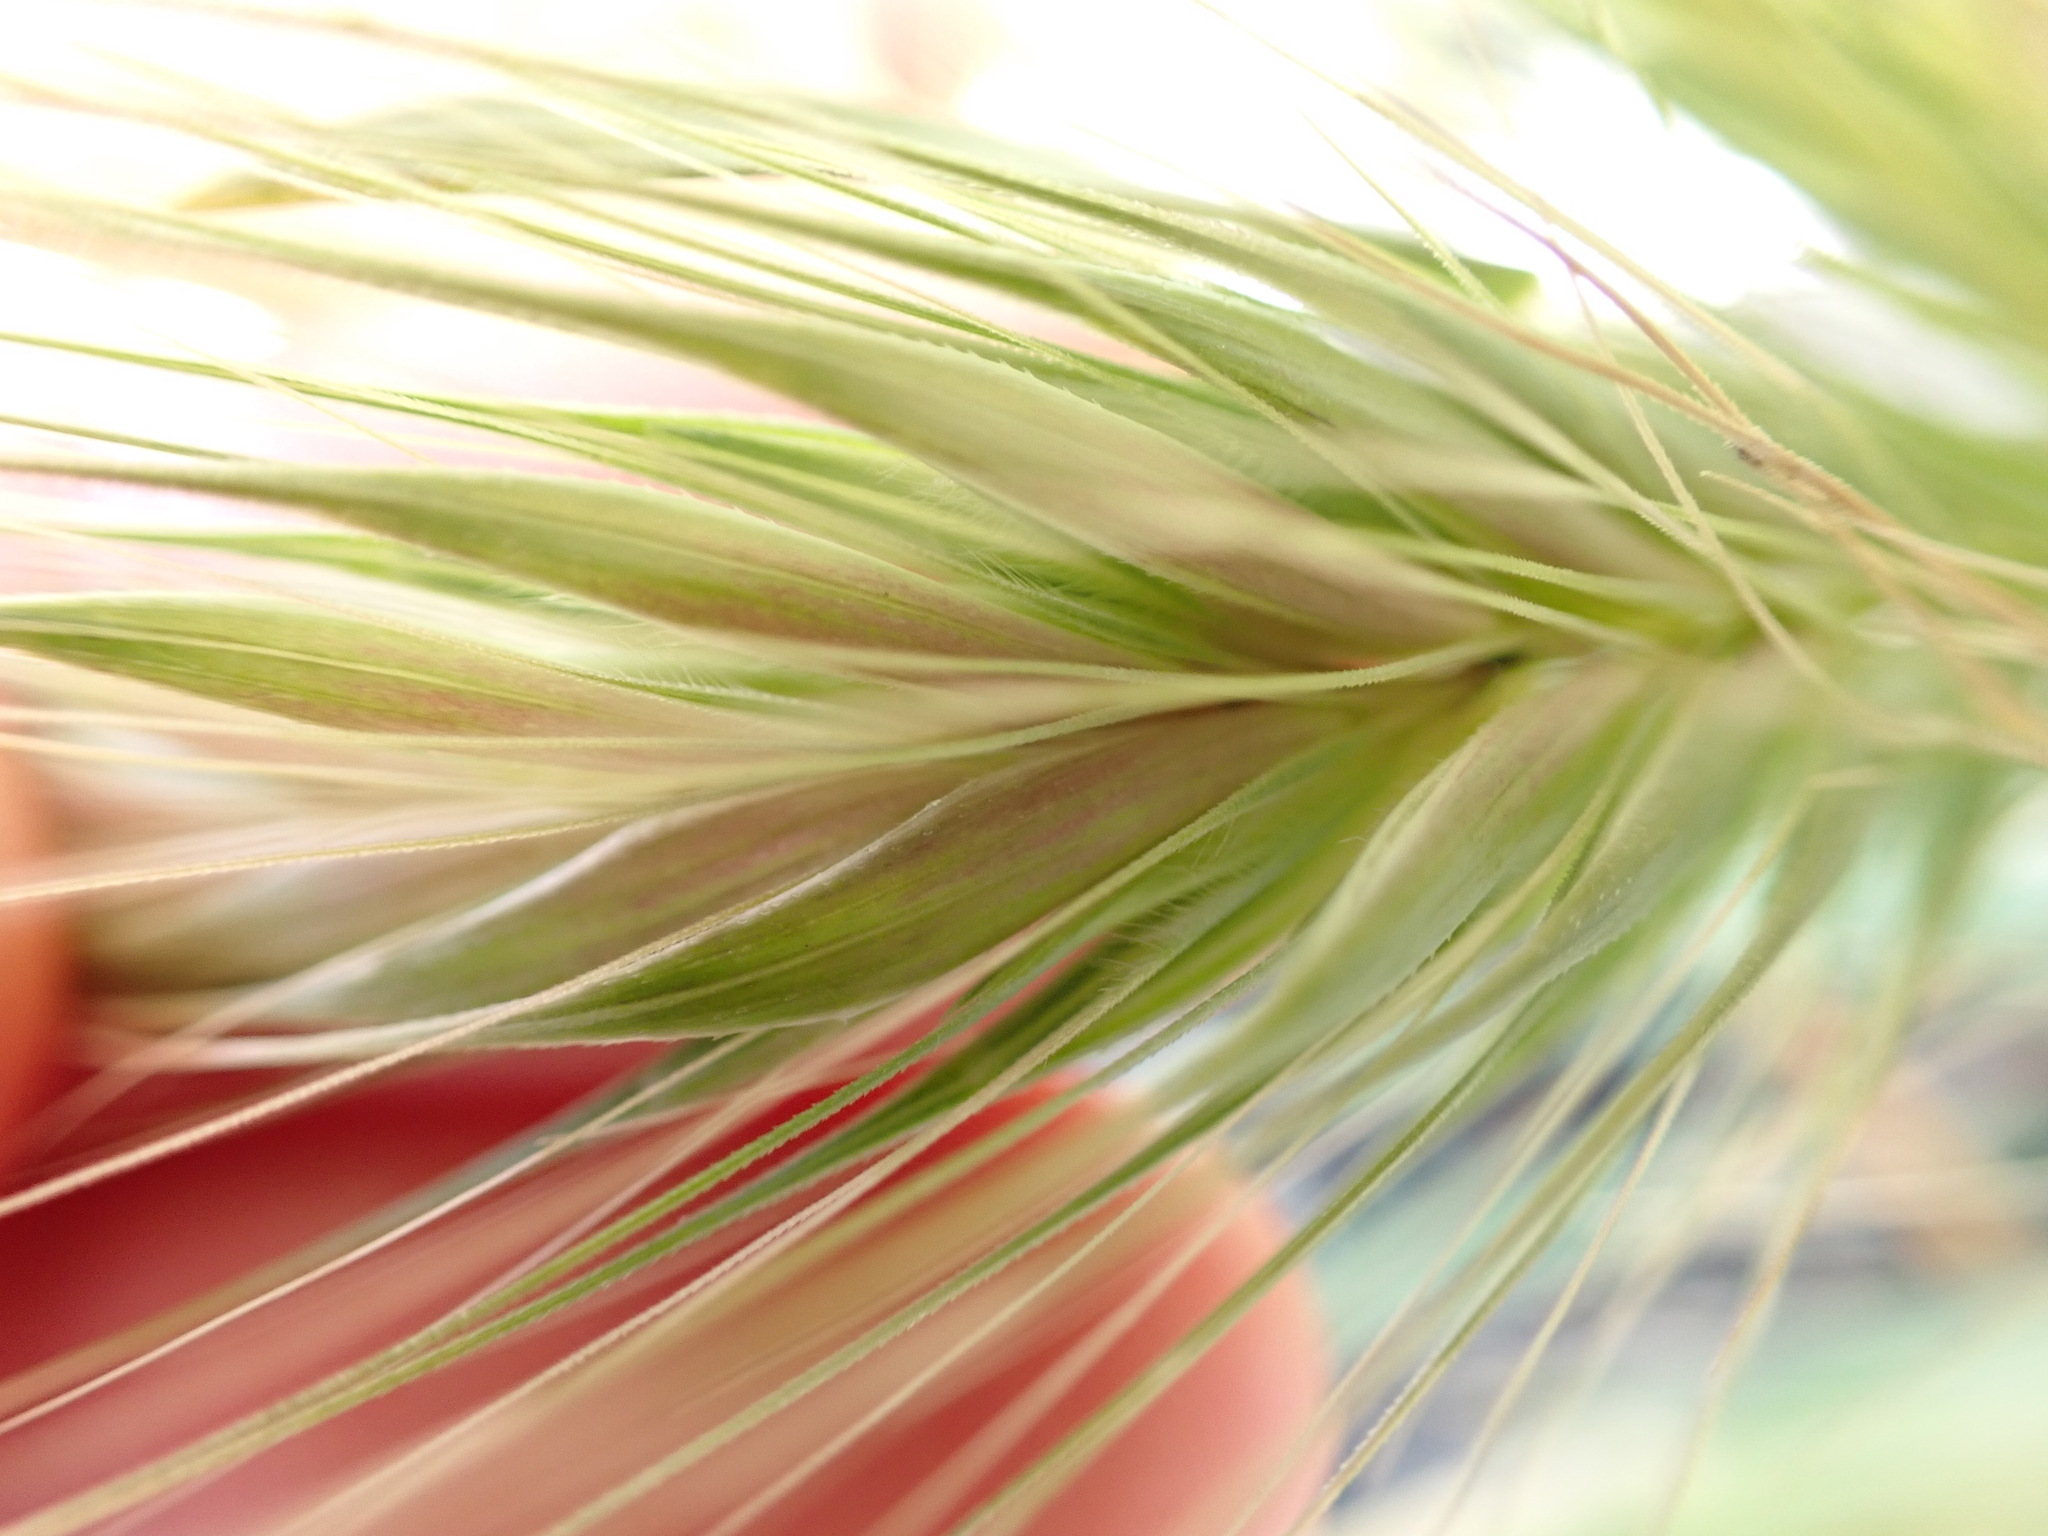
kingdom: Plantae
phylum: Tracheophyta
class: Liliopsida
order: Poales
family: Poaceae
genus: Hordeum
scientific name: Hordeum murinum
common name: Wall barley
